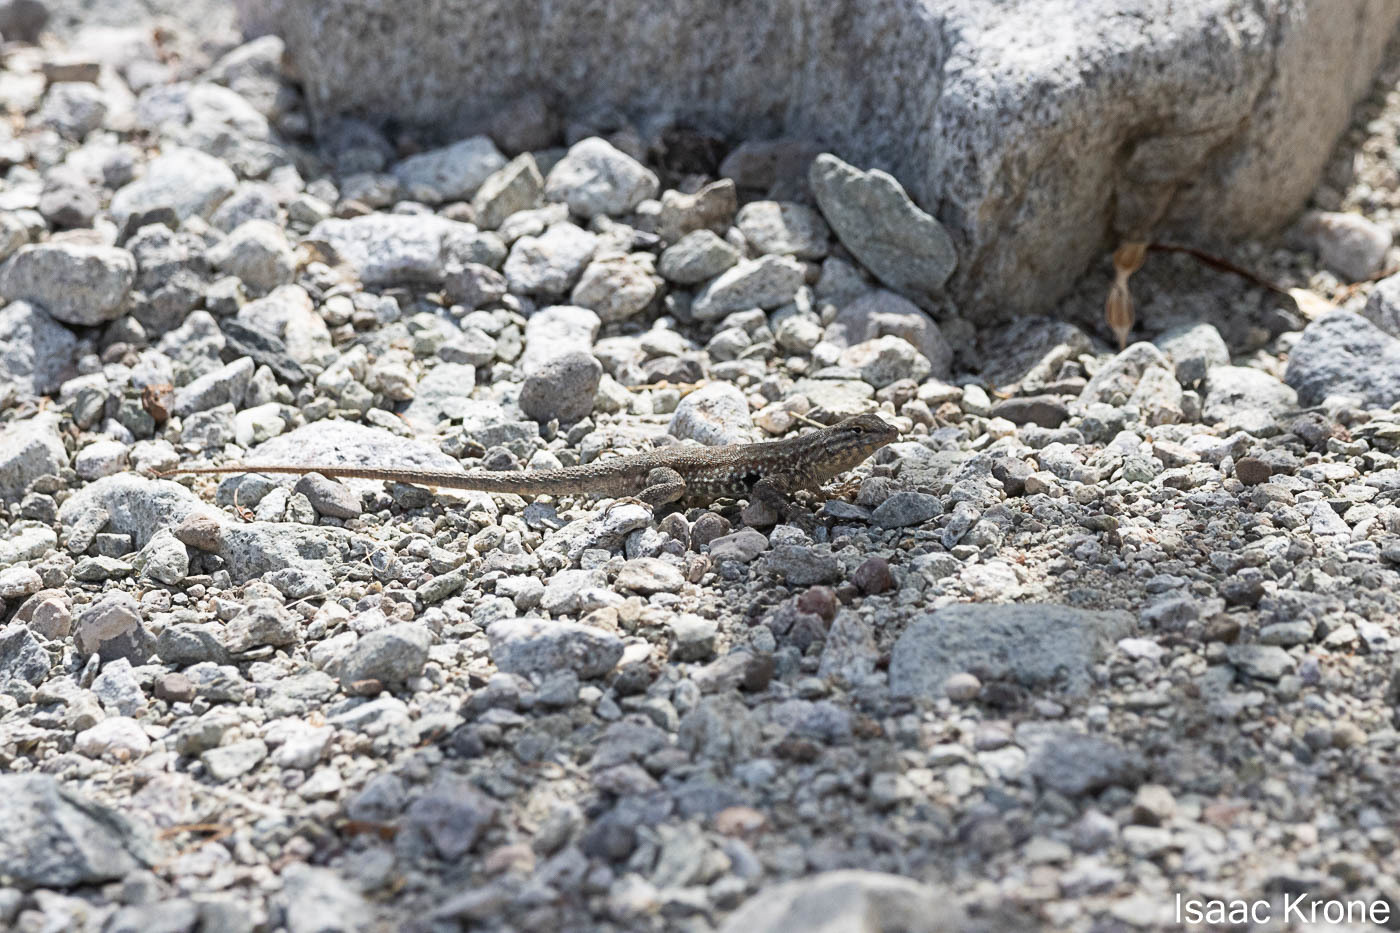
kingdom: Animalia
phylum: Chordata
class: Squamata
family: Phrynosomatidae
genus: Uta
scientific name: Uta stansburiana
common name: Side-blotched lizard
